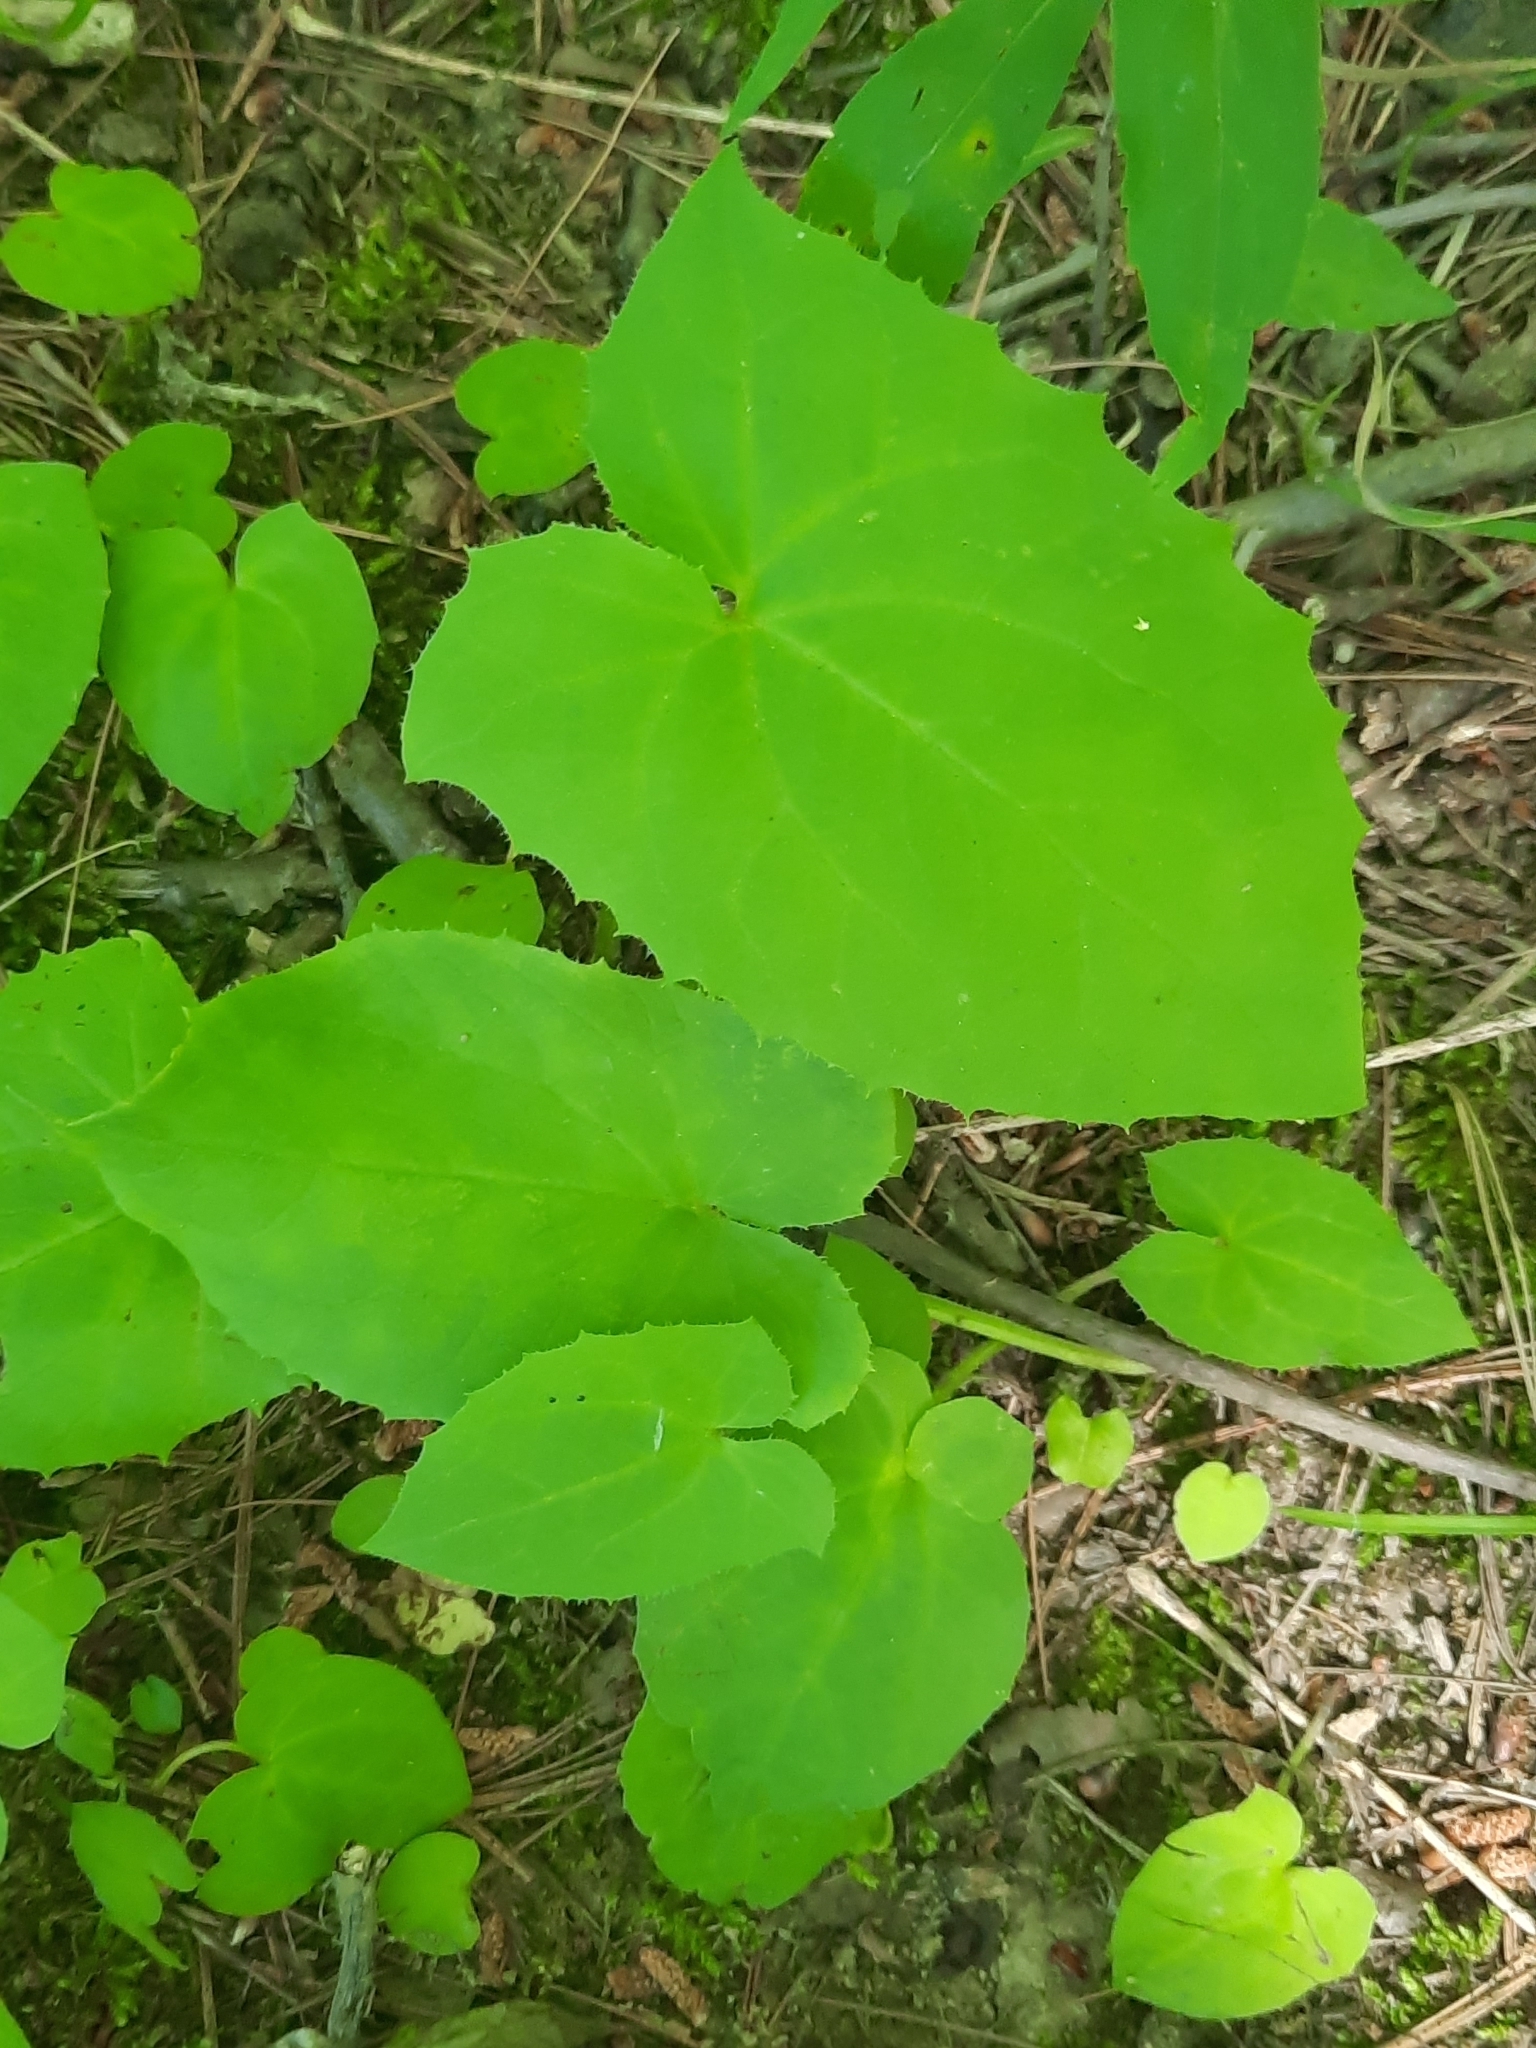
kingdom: Plantae
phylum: Tracheophyta
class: Magnoliopsida
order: Asterales
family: Asteraceae
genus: Nabalus
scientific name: Nabalus
